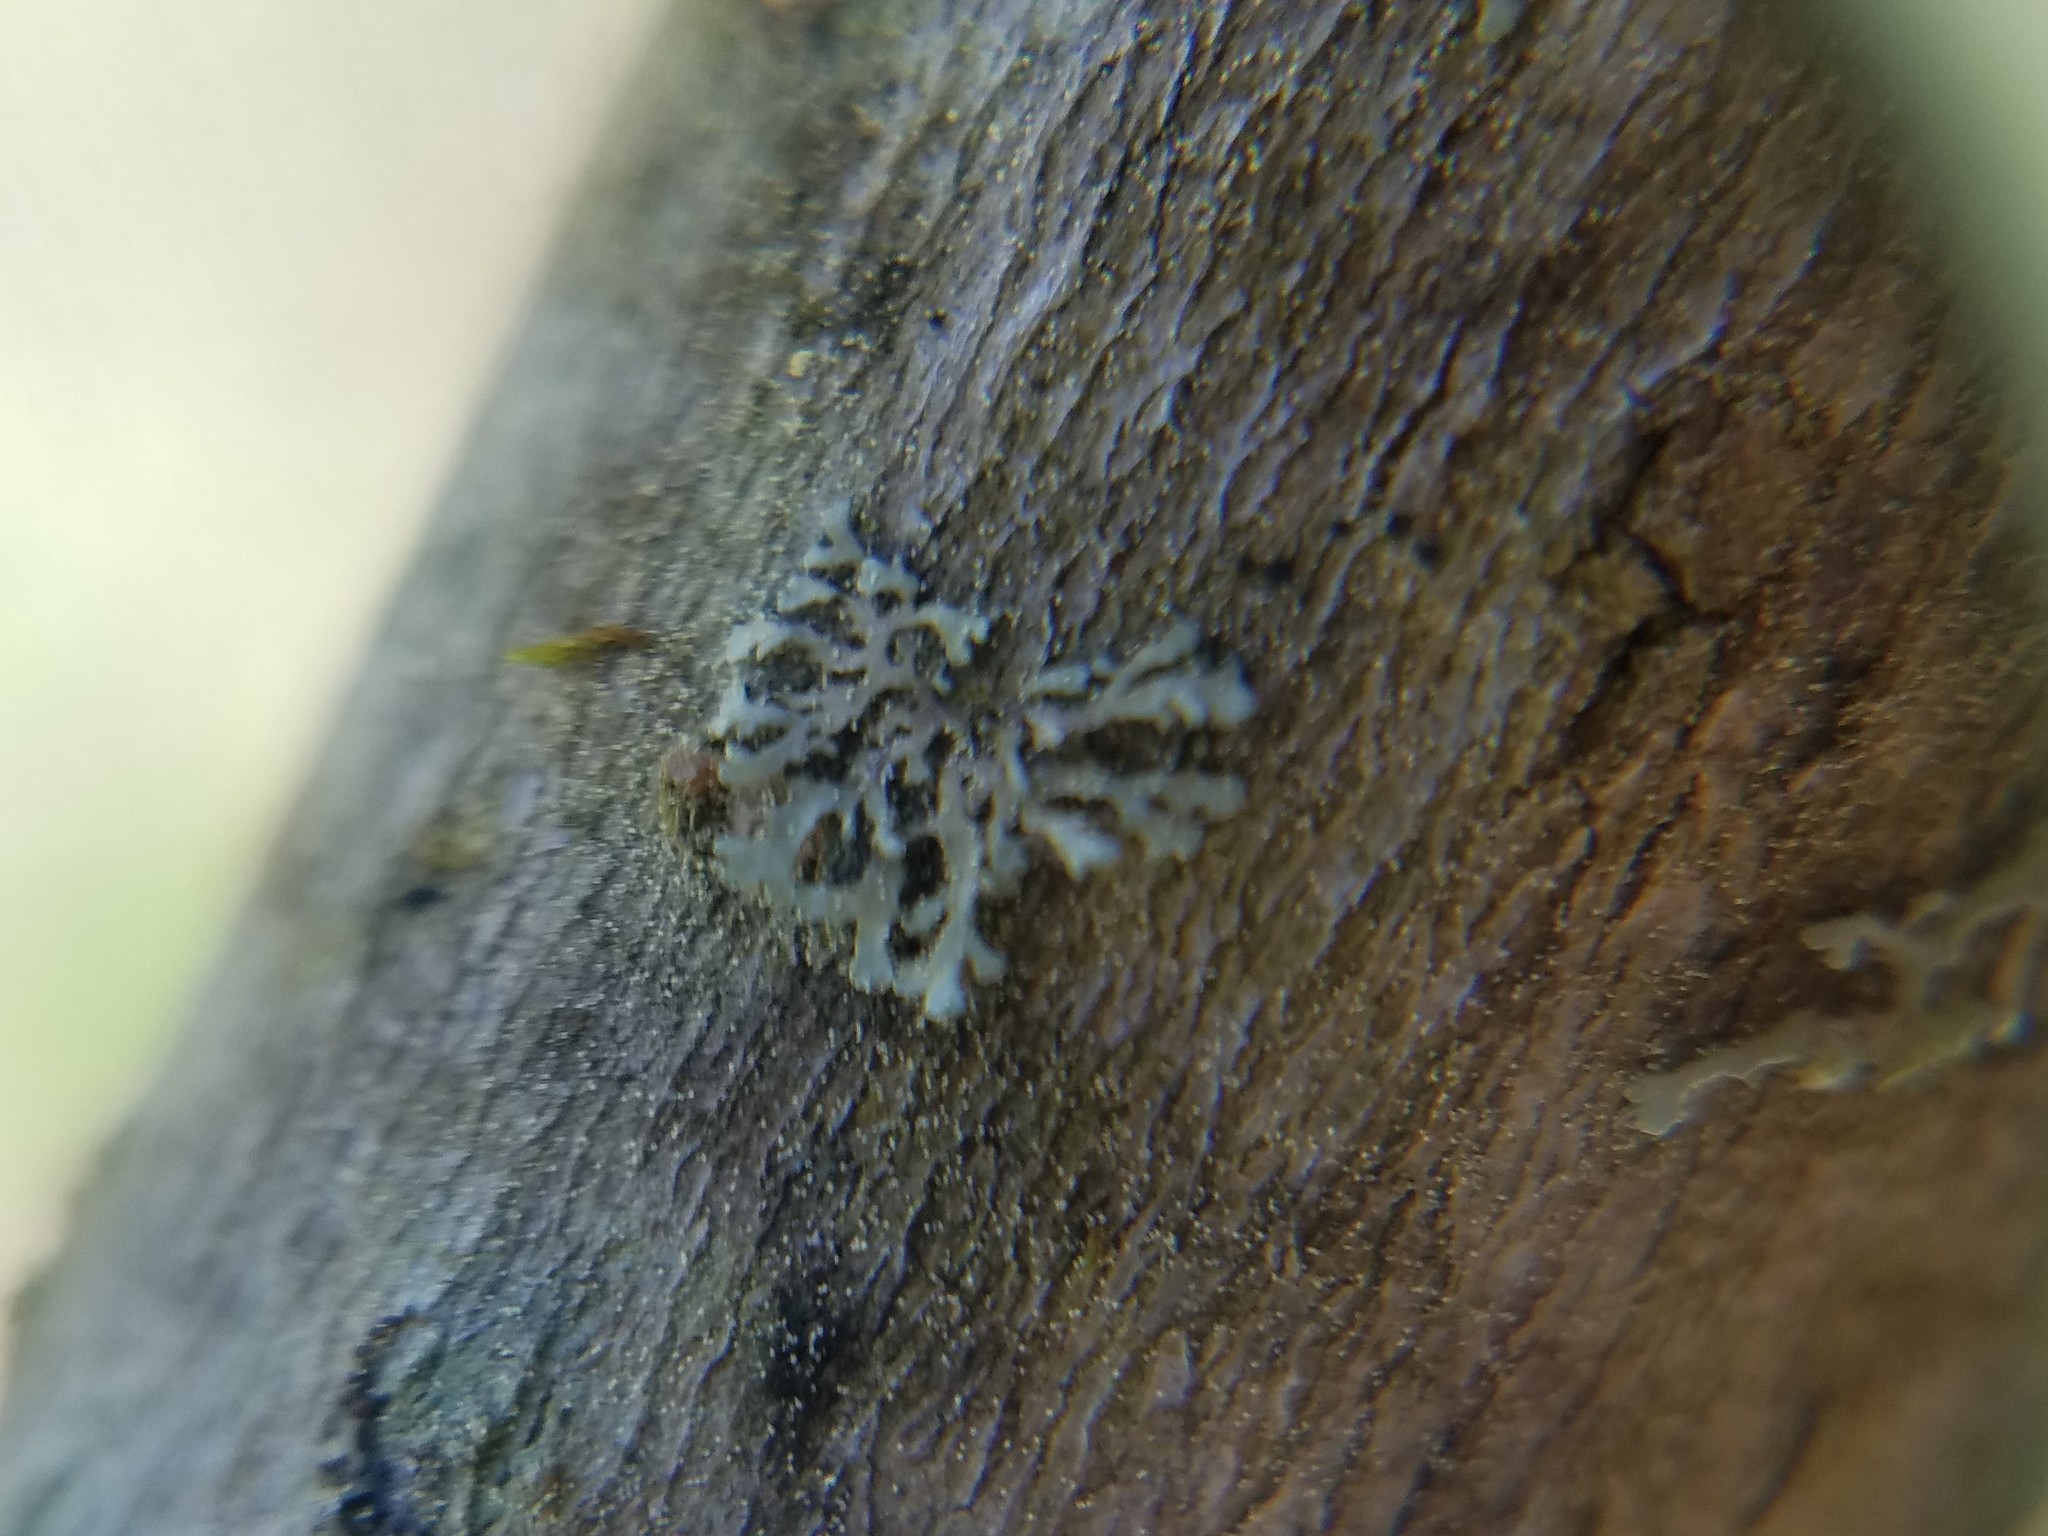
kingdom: Fungi
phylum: Ascomycota
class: Lecanoromycetes
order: Caliciales
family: Physciaceae
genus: Physciella
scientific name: Physciella chloantha
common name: Cryptic rosette lichen
